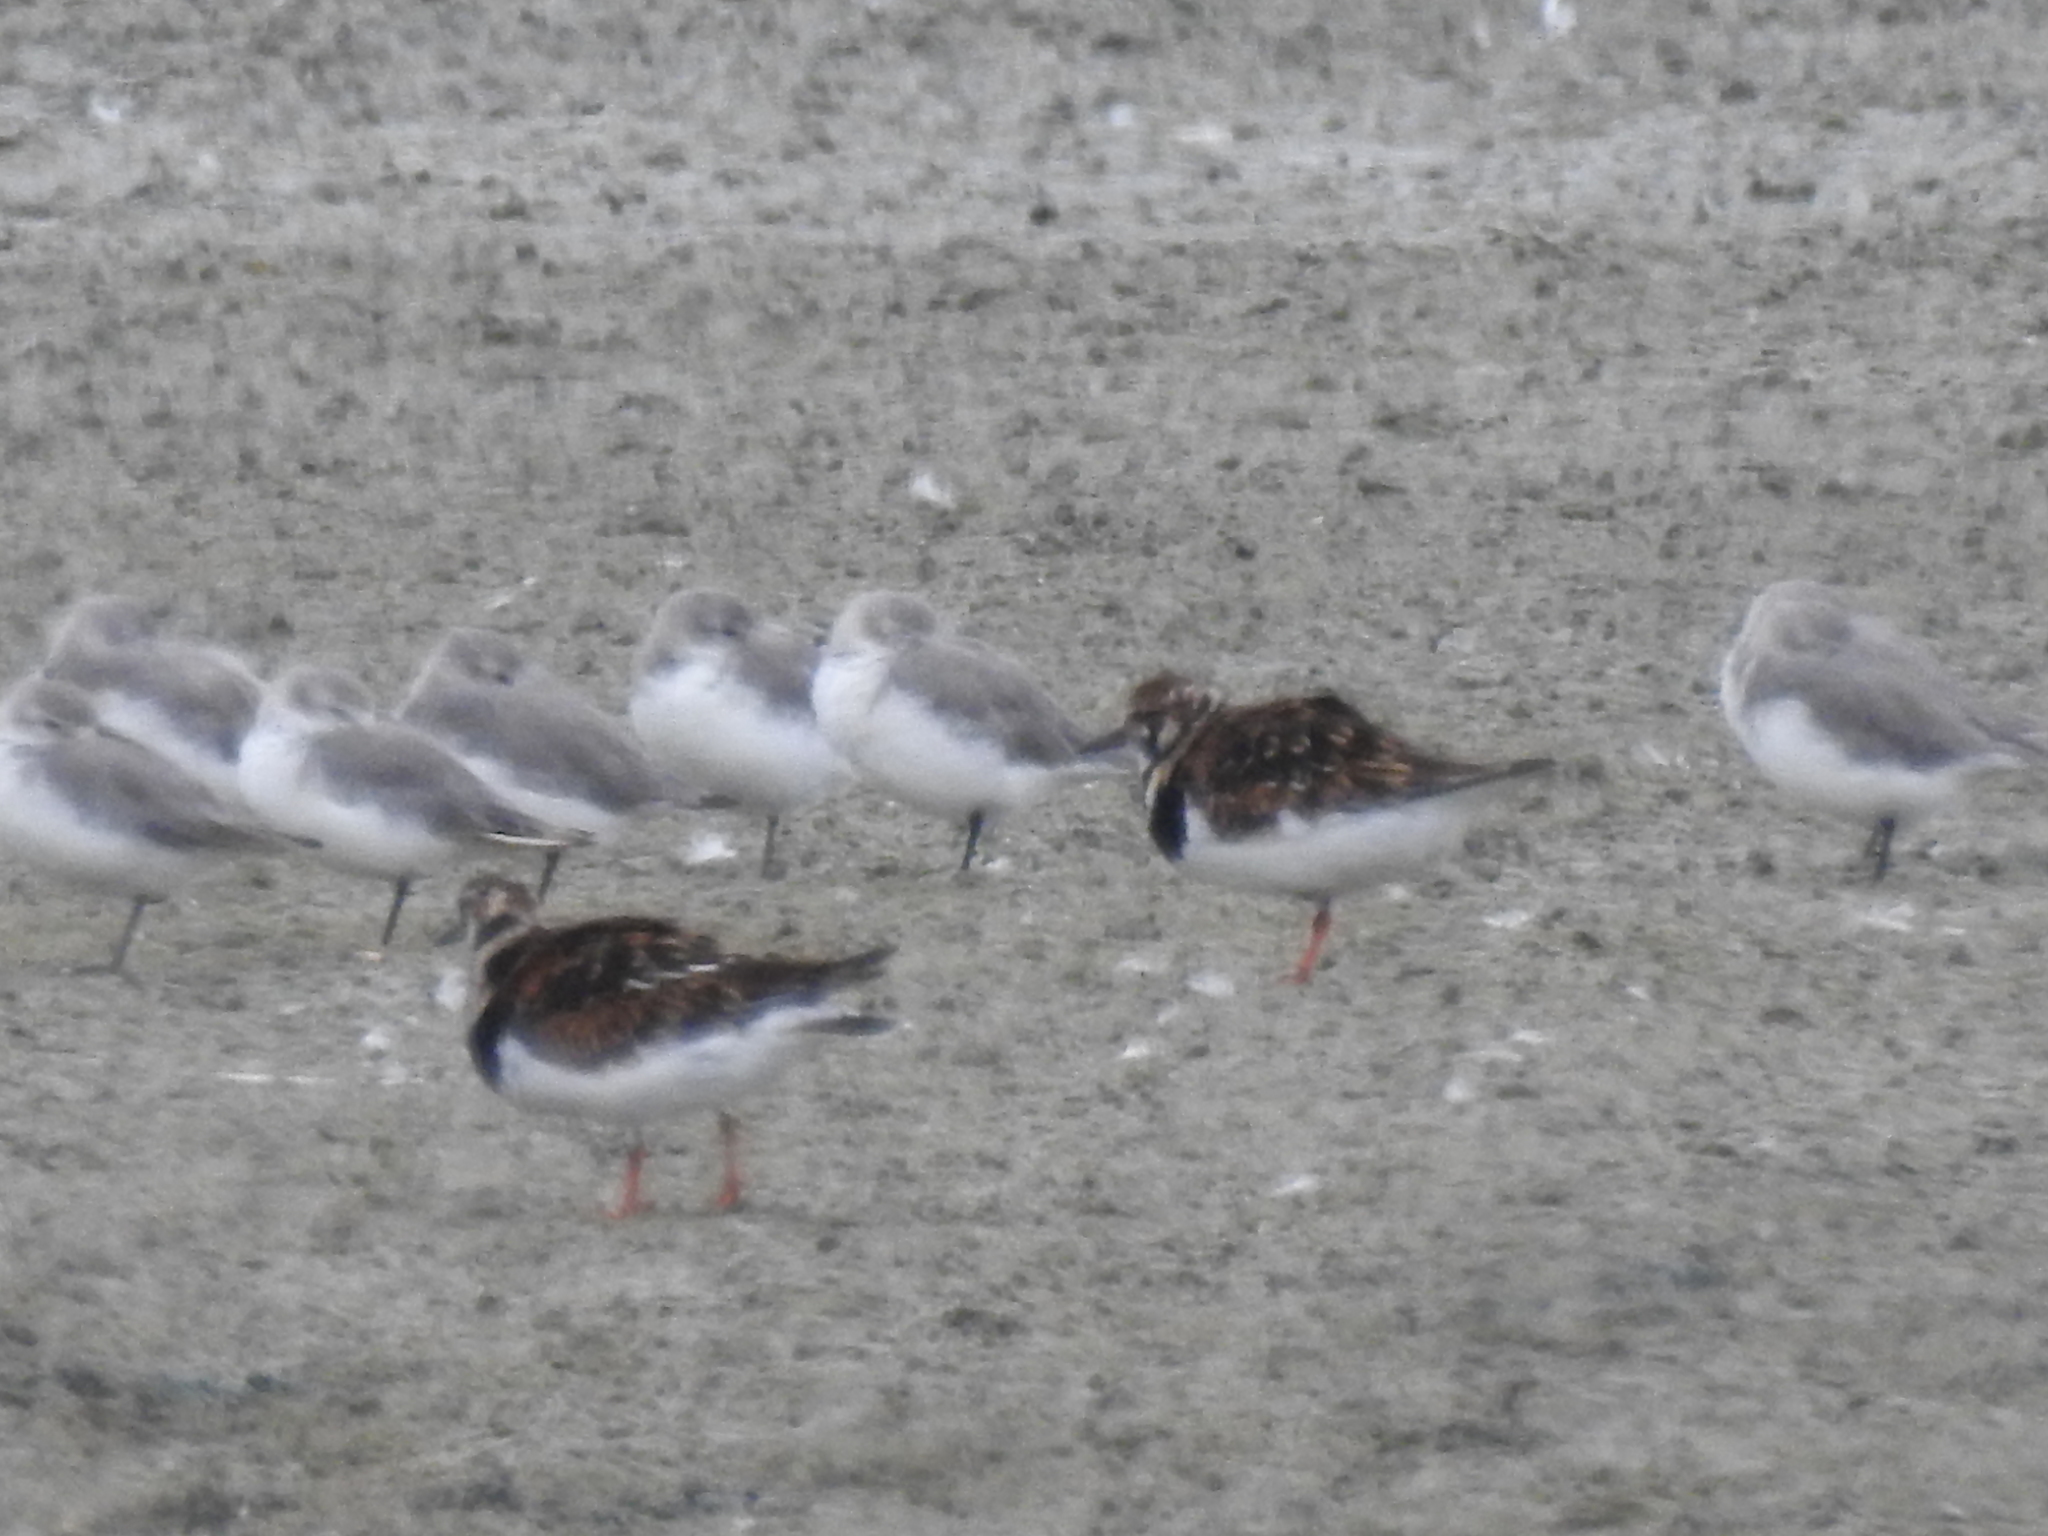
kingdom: Animalia
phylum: Chordata
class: Aves
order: Charadriiformes
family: Scolopacidae
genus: Arenaria
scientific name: Arenaria interpres
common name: Ruddy turnstone
